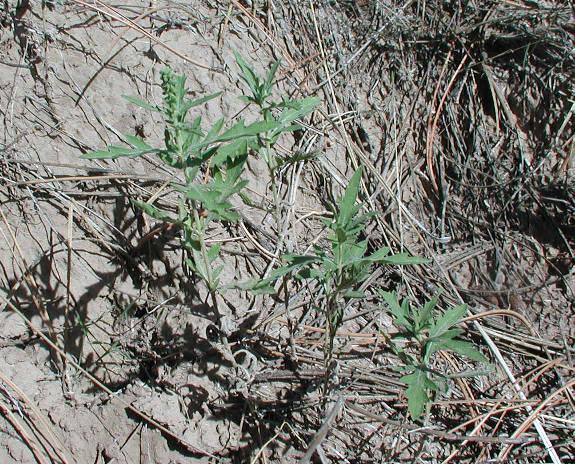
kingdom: Plantae
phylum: Tracheophyta
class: Magnoliopsida
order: Asterales
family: Asteraceae
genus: Ambrosia
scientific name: Ambrosia psilostachya
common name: Perennial ragweed
